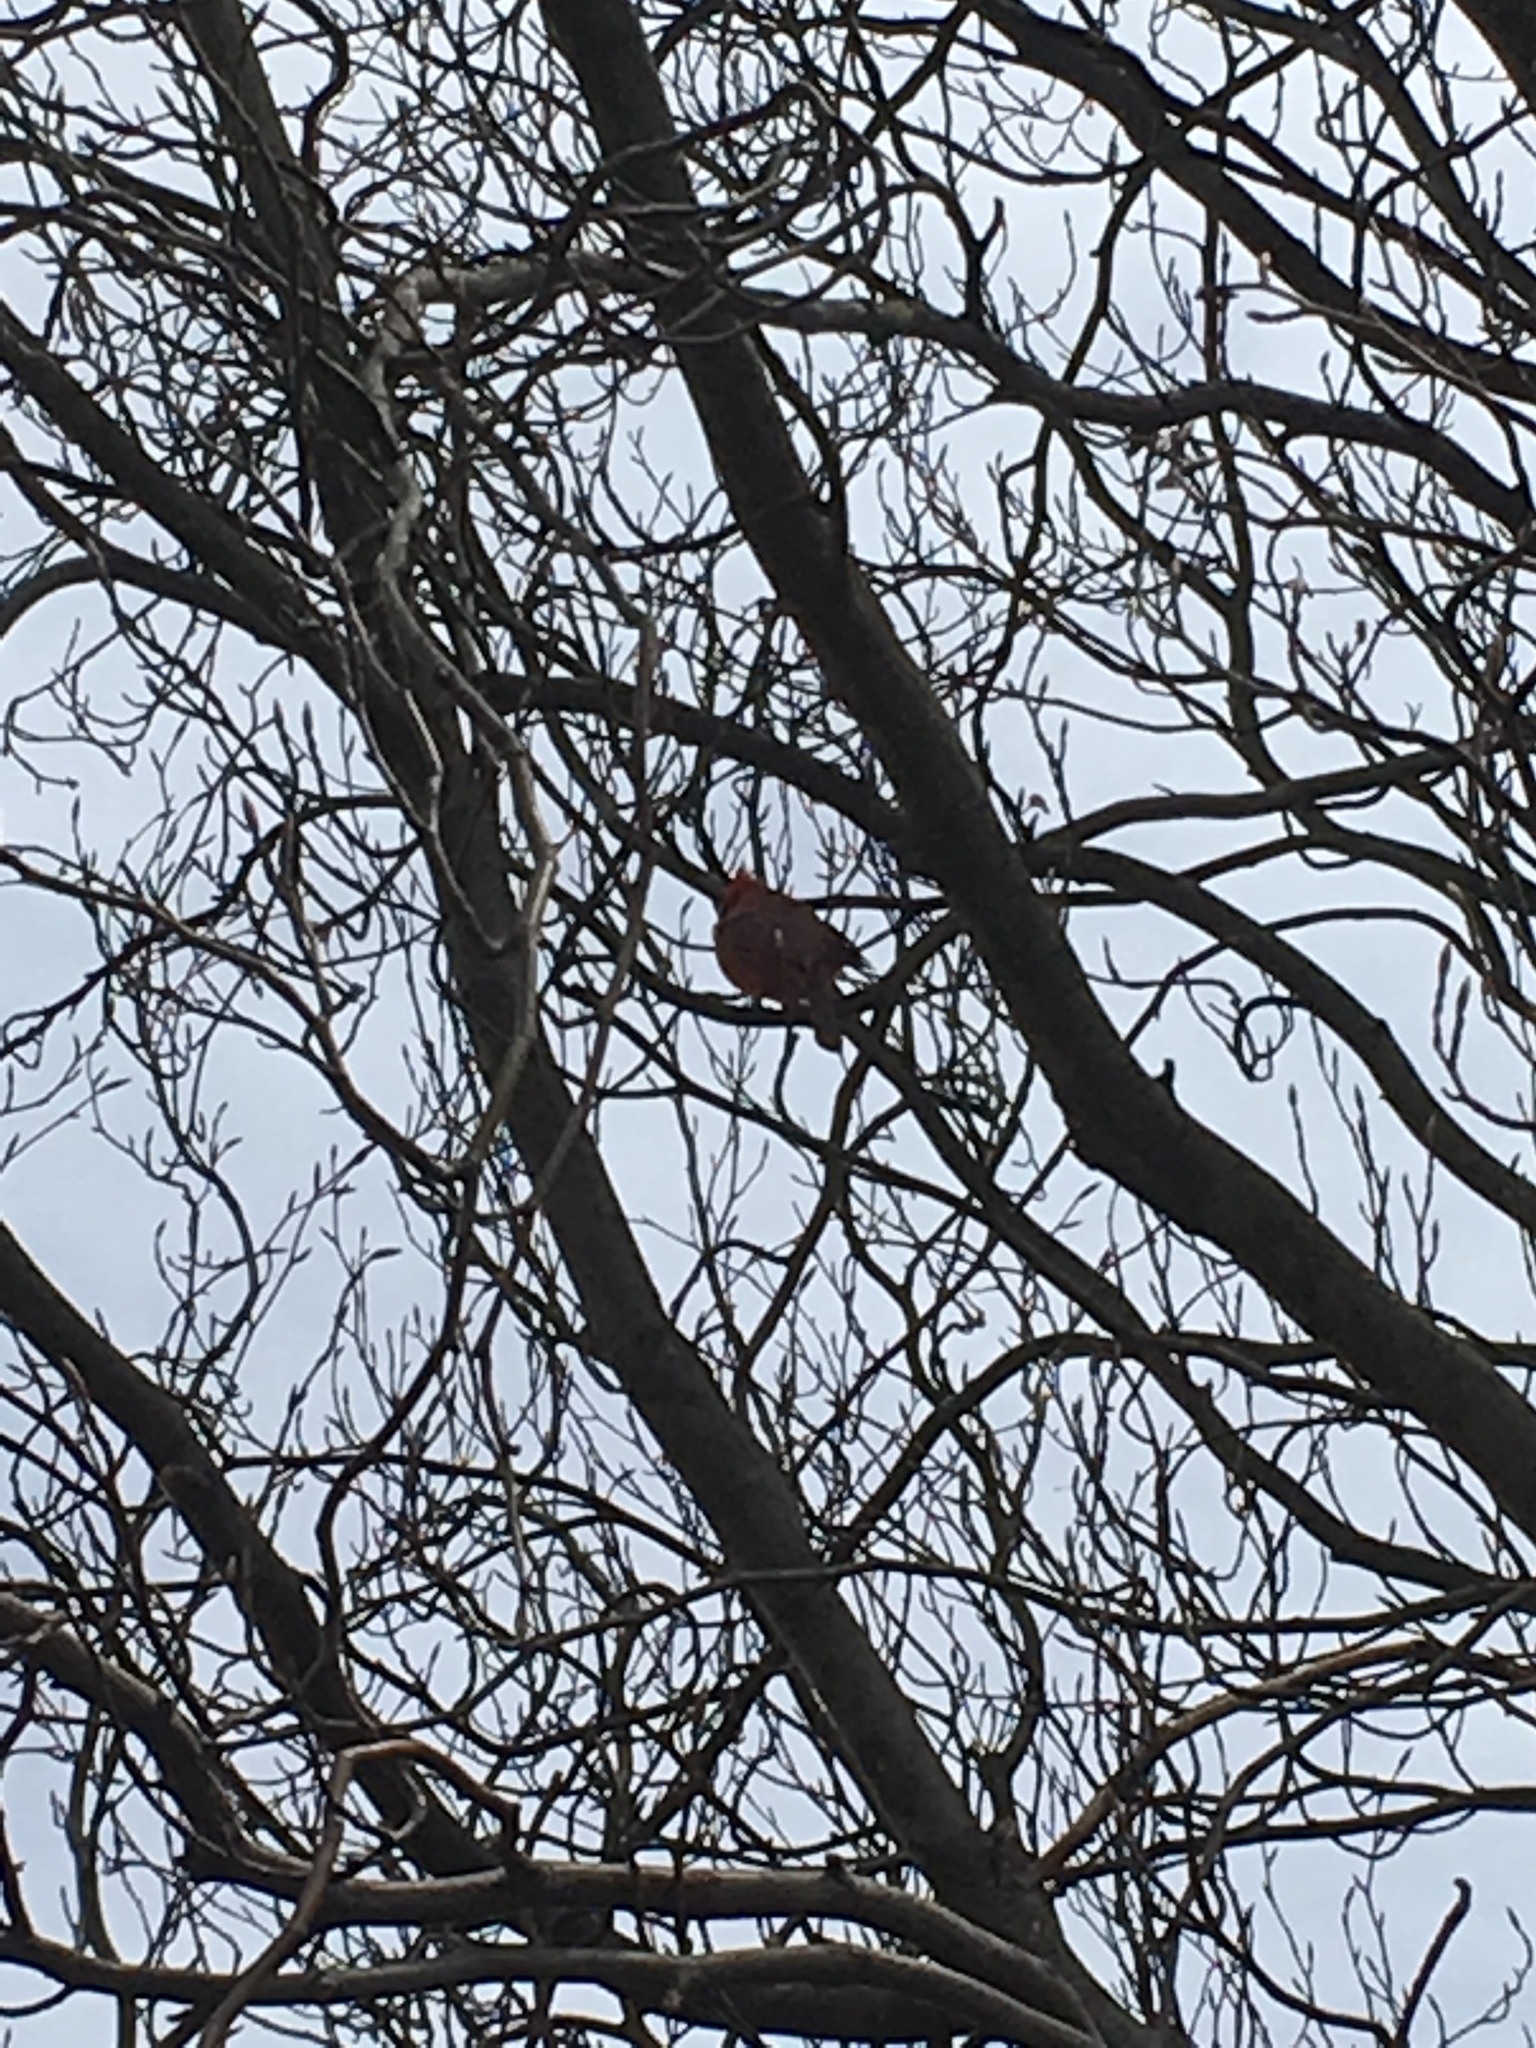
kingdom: Animalia
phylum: Chordata
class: Aves
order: Passeriformes
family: Cardinalidae
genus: Cardinalis
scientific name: Cardinalis cardinalis
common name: Northern cardinal
